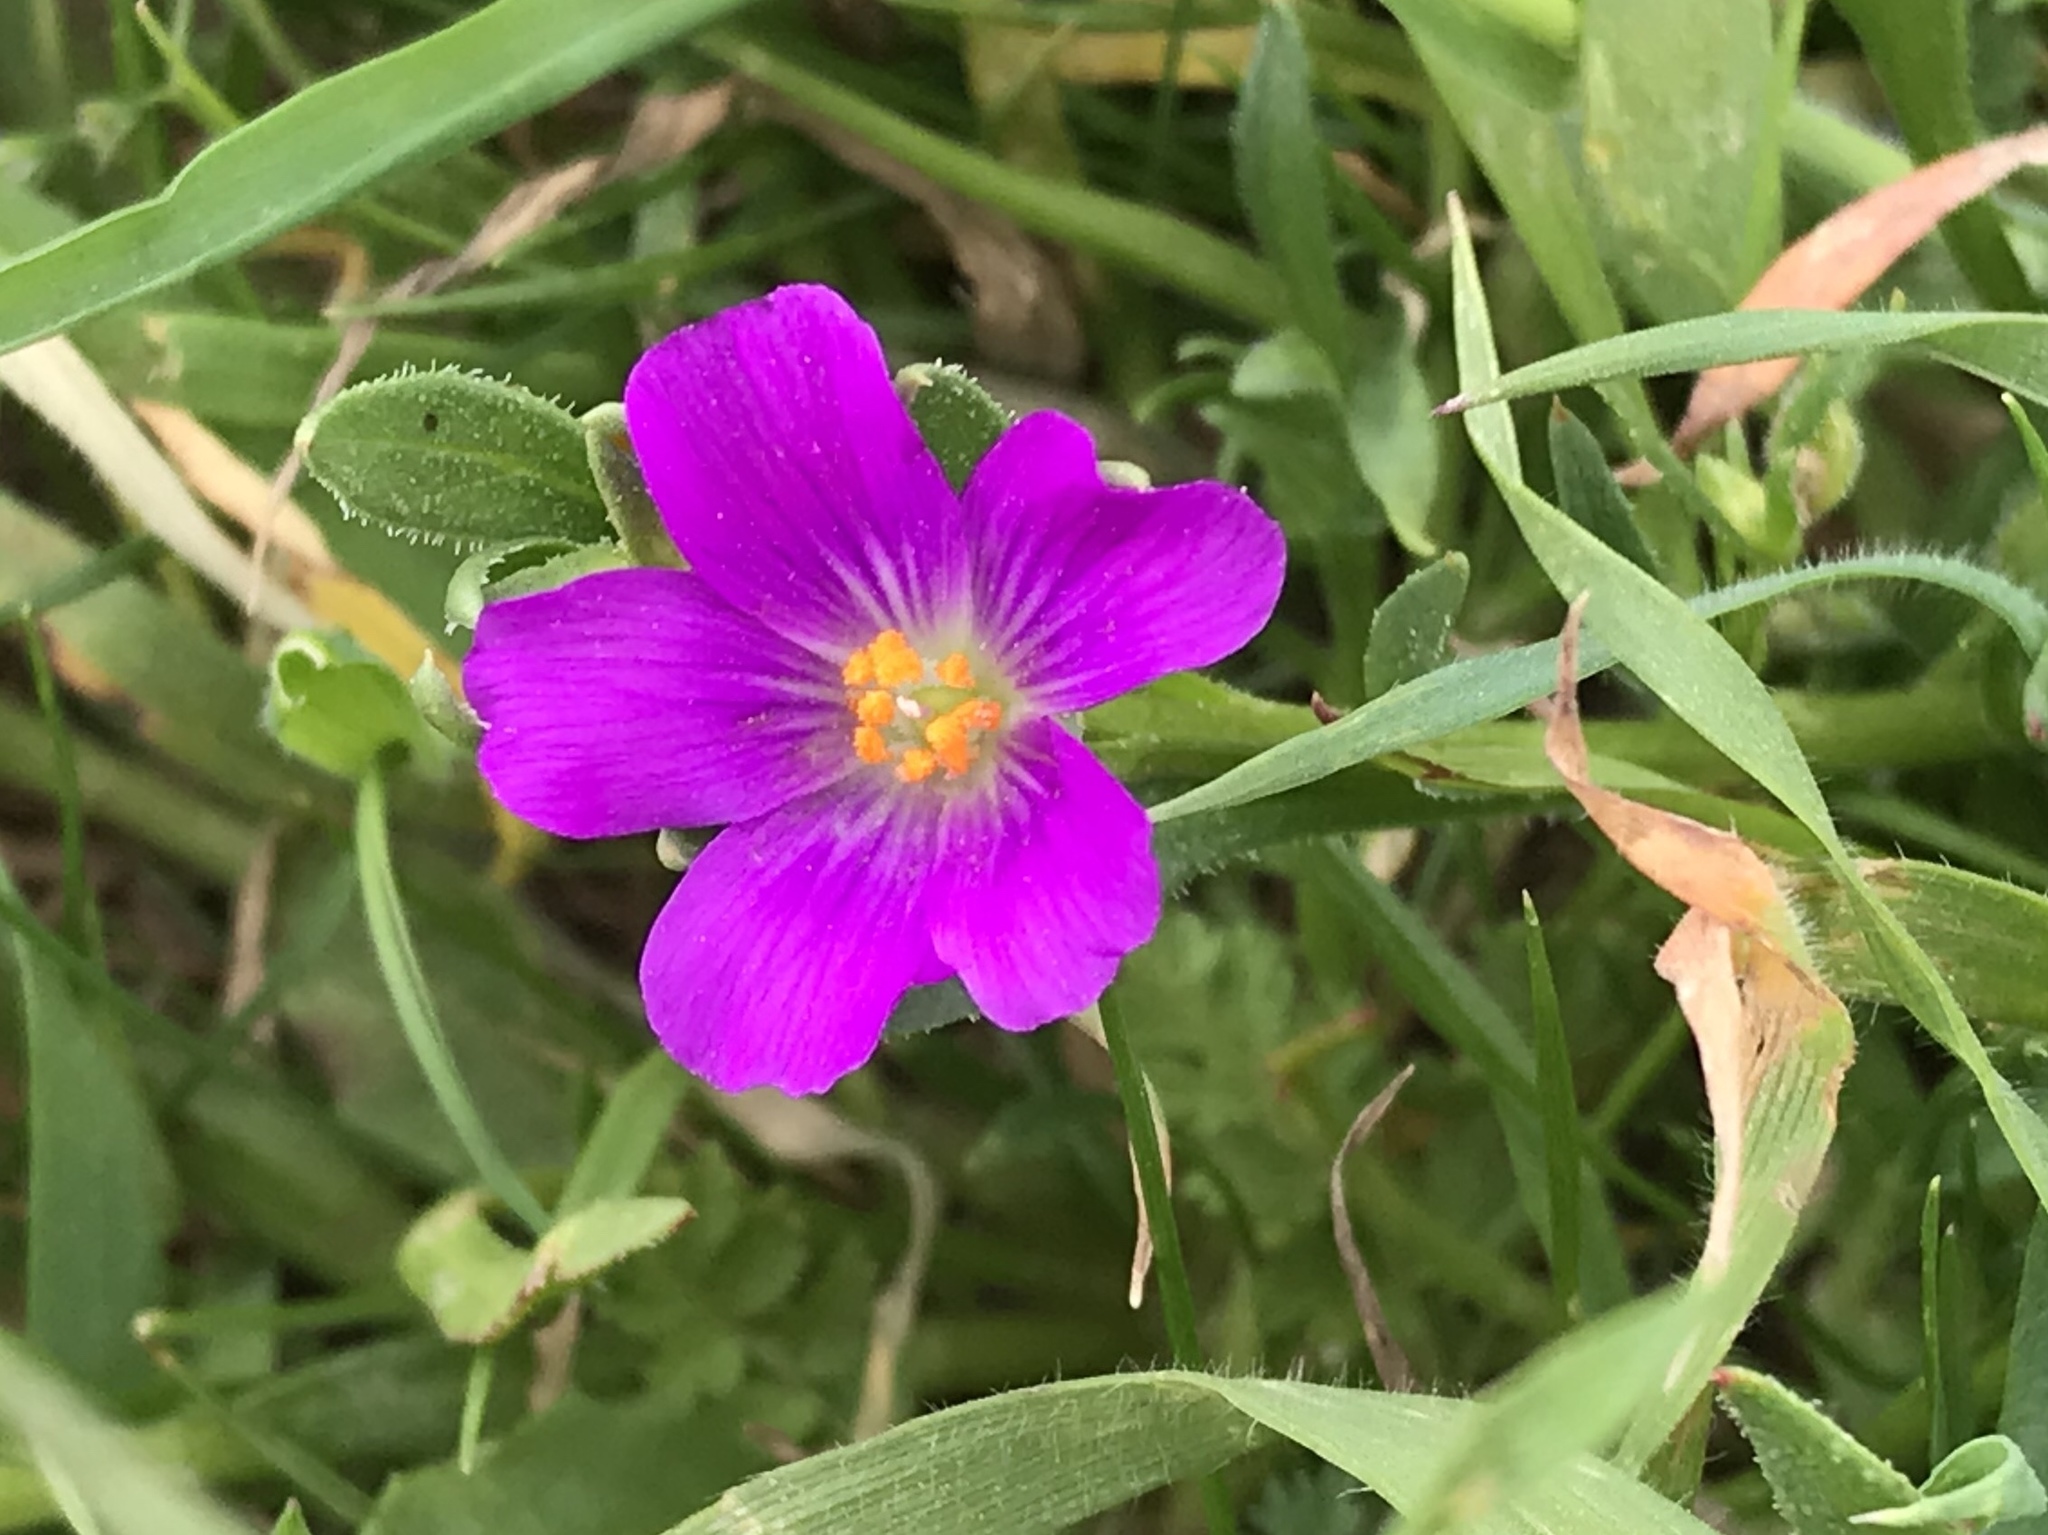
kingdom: Plantae
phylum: Tracheophyta
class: Magnoliopsida
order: Caryophyllales
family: Montiaceae
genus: Calandrinia
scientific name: Calandrinia menziesii
